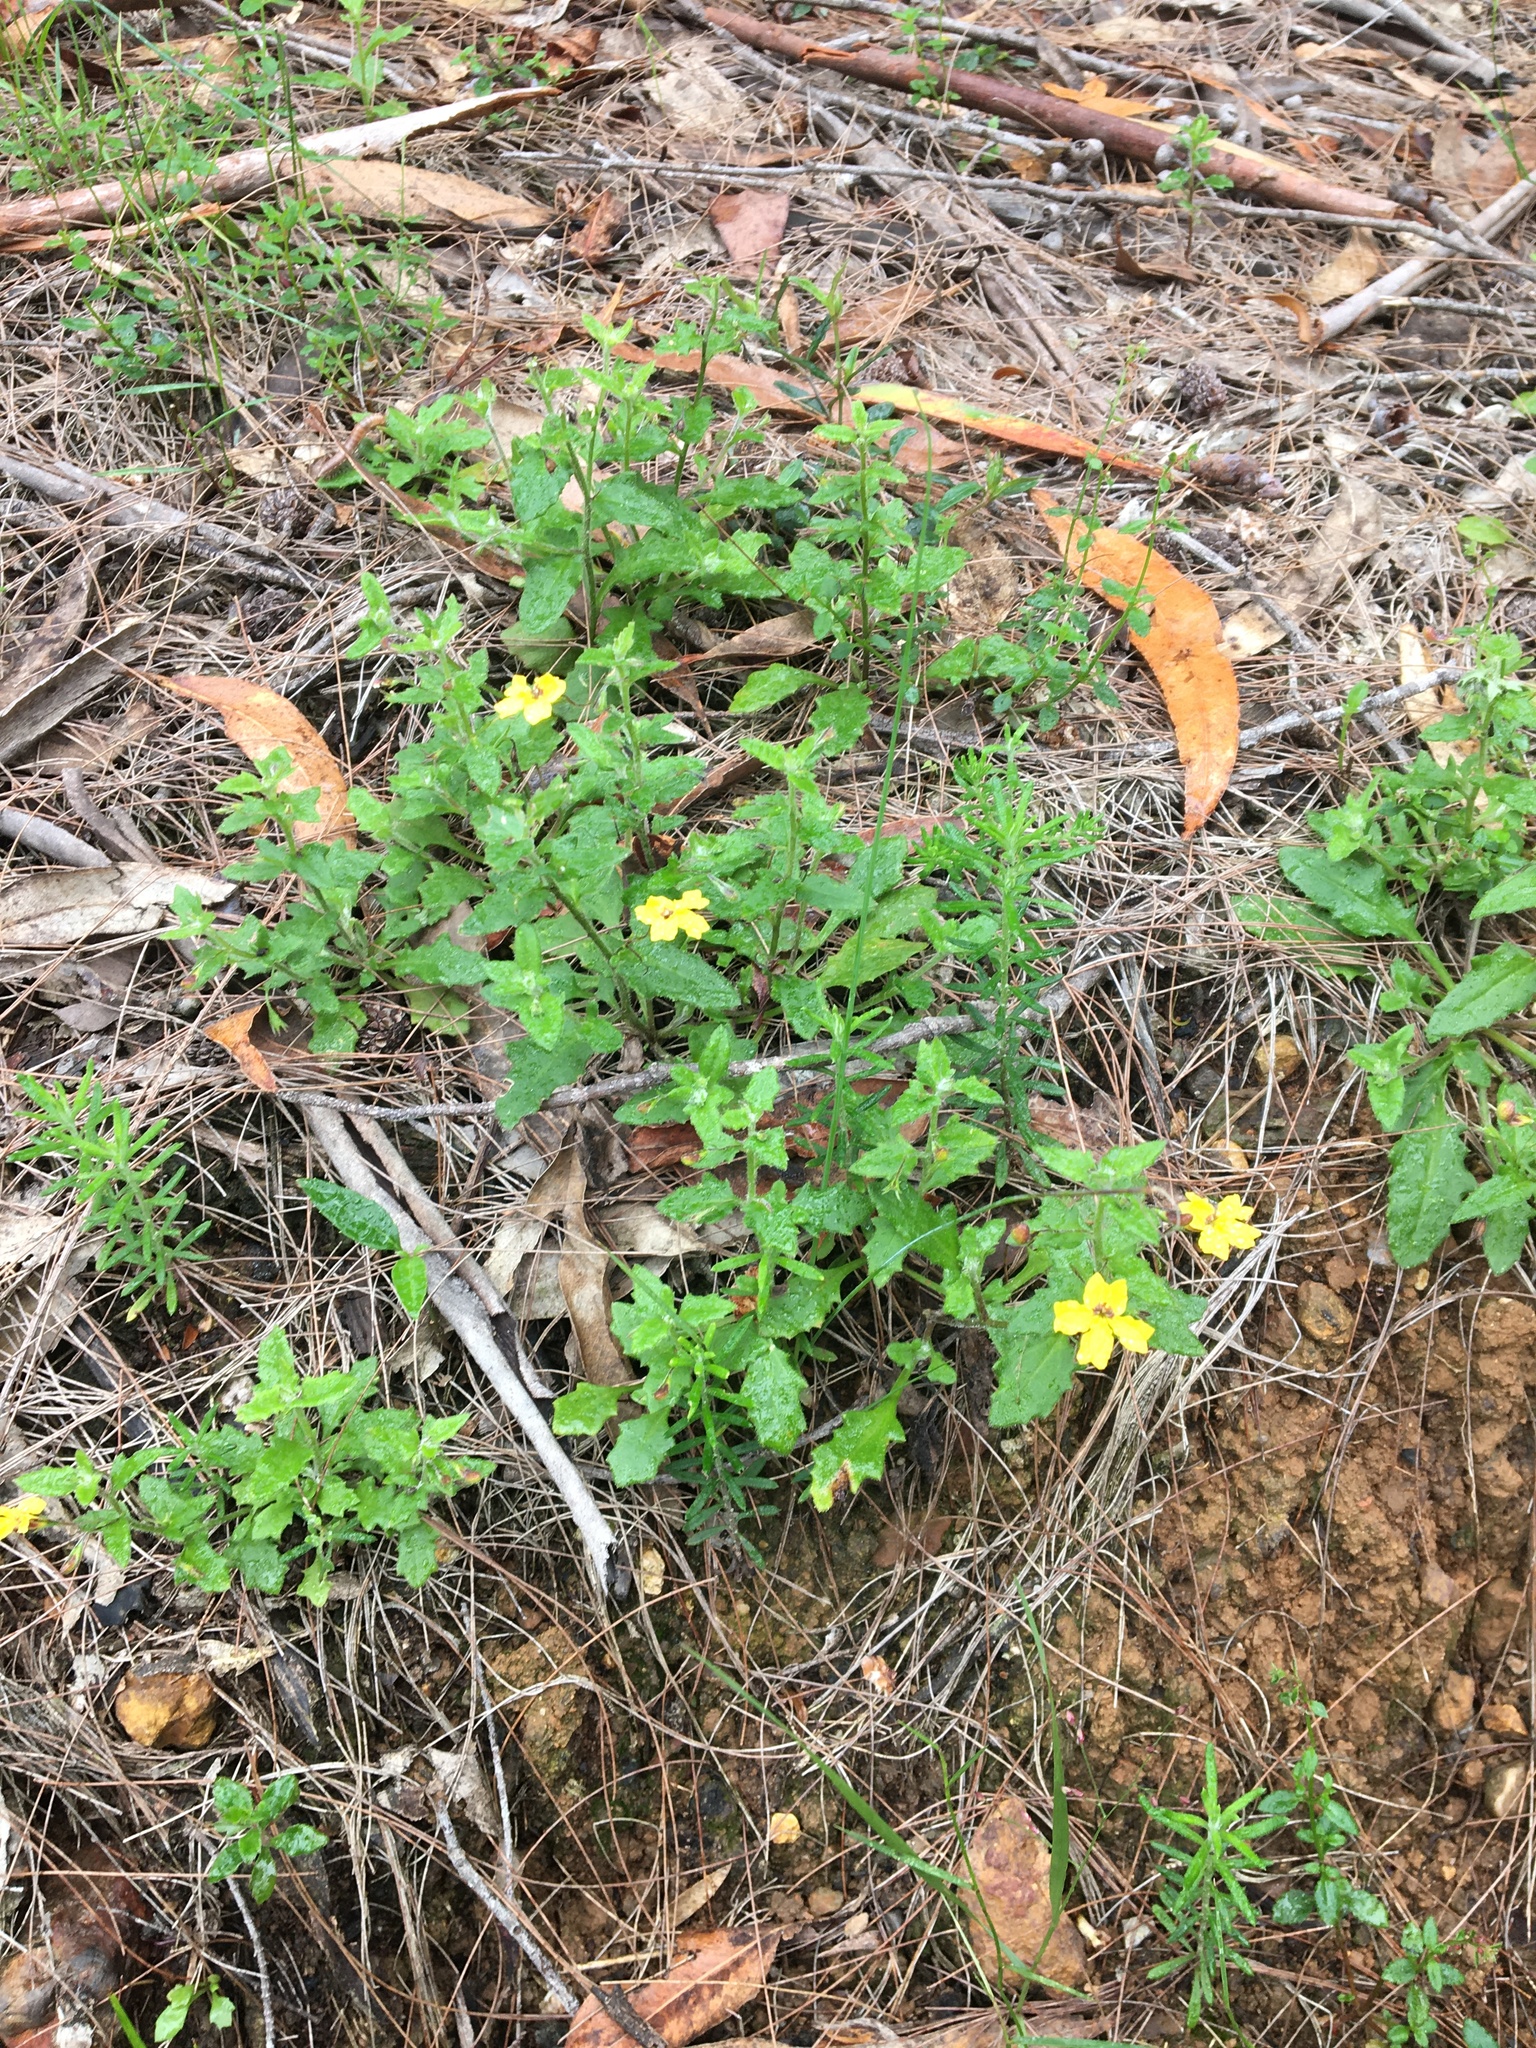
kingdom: Plantae
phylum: Tracheophyta
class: Magnoliopsida
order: Asterales
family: Goodeniaceae
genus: Goodenia
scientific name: Goodenia heterophylla
